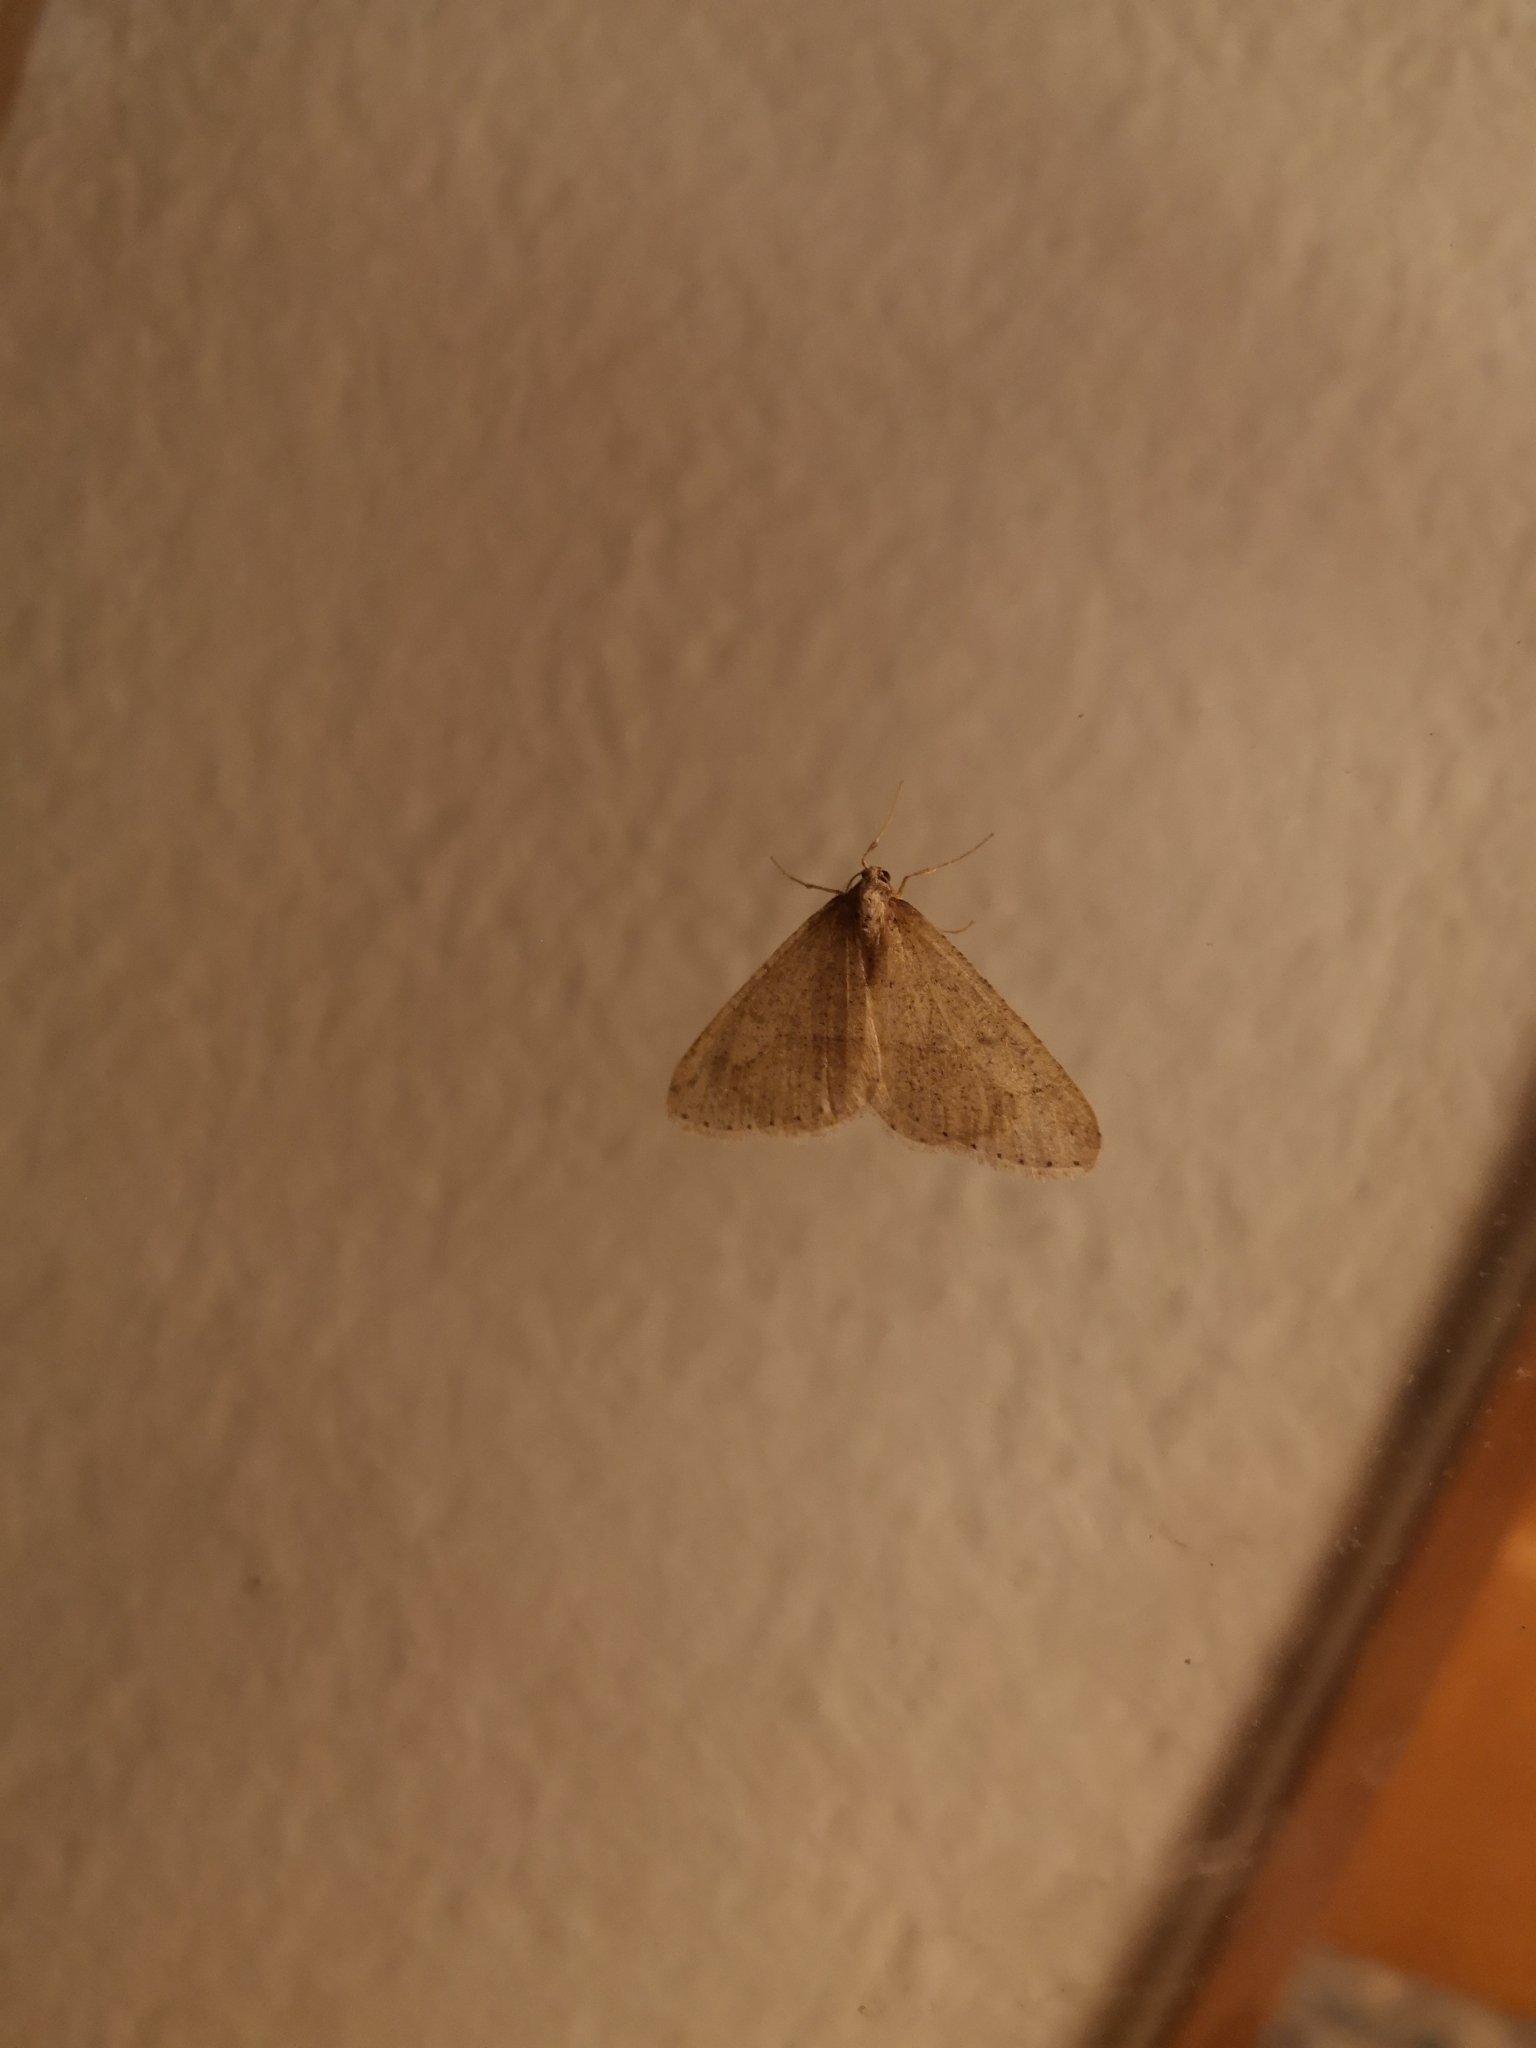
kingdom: Animalia
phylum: Arthropoda
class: Insecta
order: Lepidoptera
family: Geometridae
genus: Agriopis
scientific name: Agriopis marginaria
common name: Dotted border
